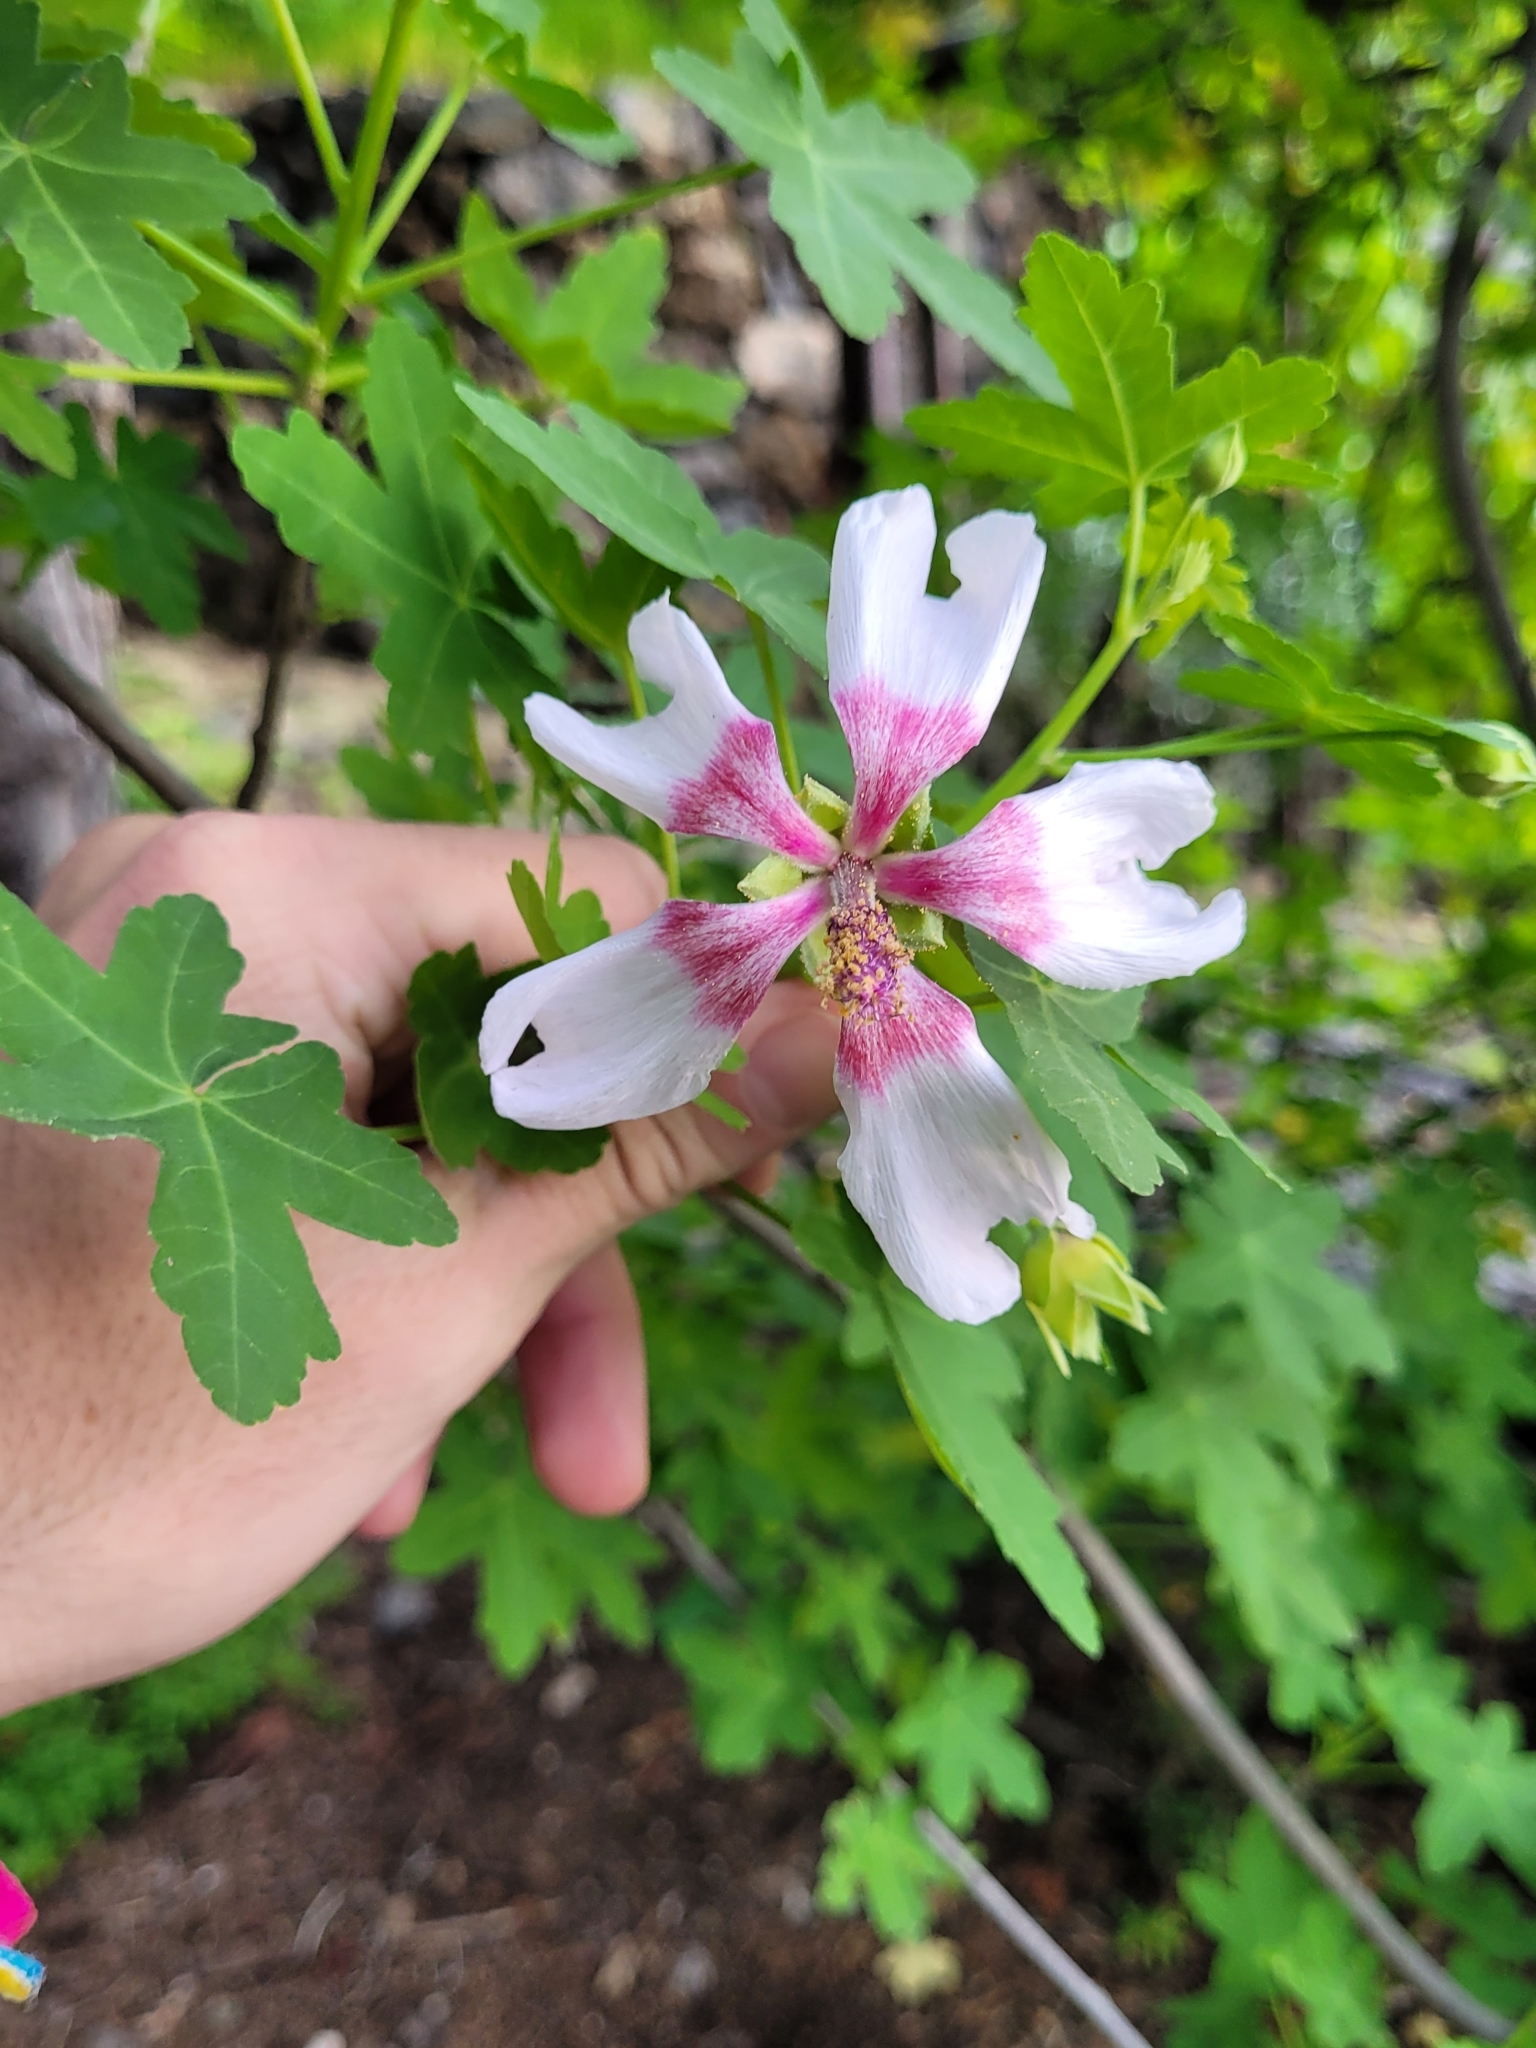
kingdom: Plantae
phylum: Tracheophyta
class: Magnoliopsida
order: Malvales
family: Malvaceae
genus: Malva
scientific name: Malva acerifolia
